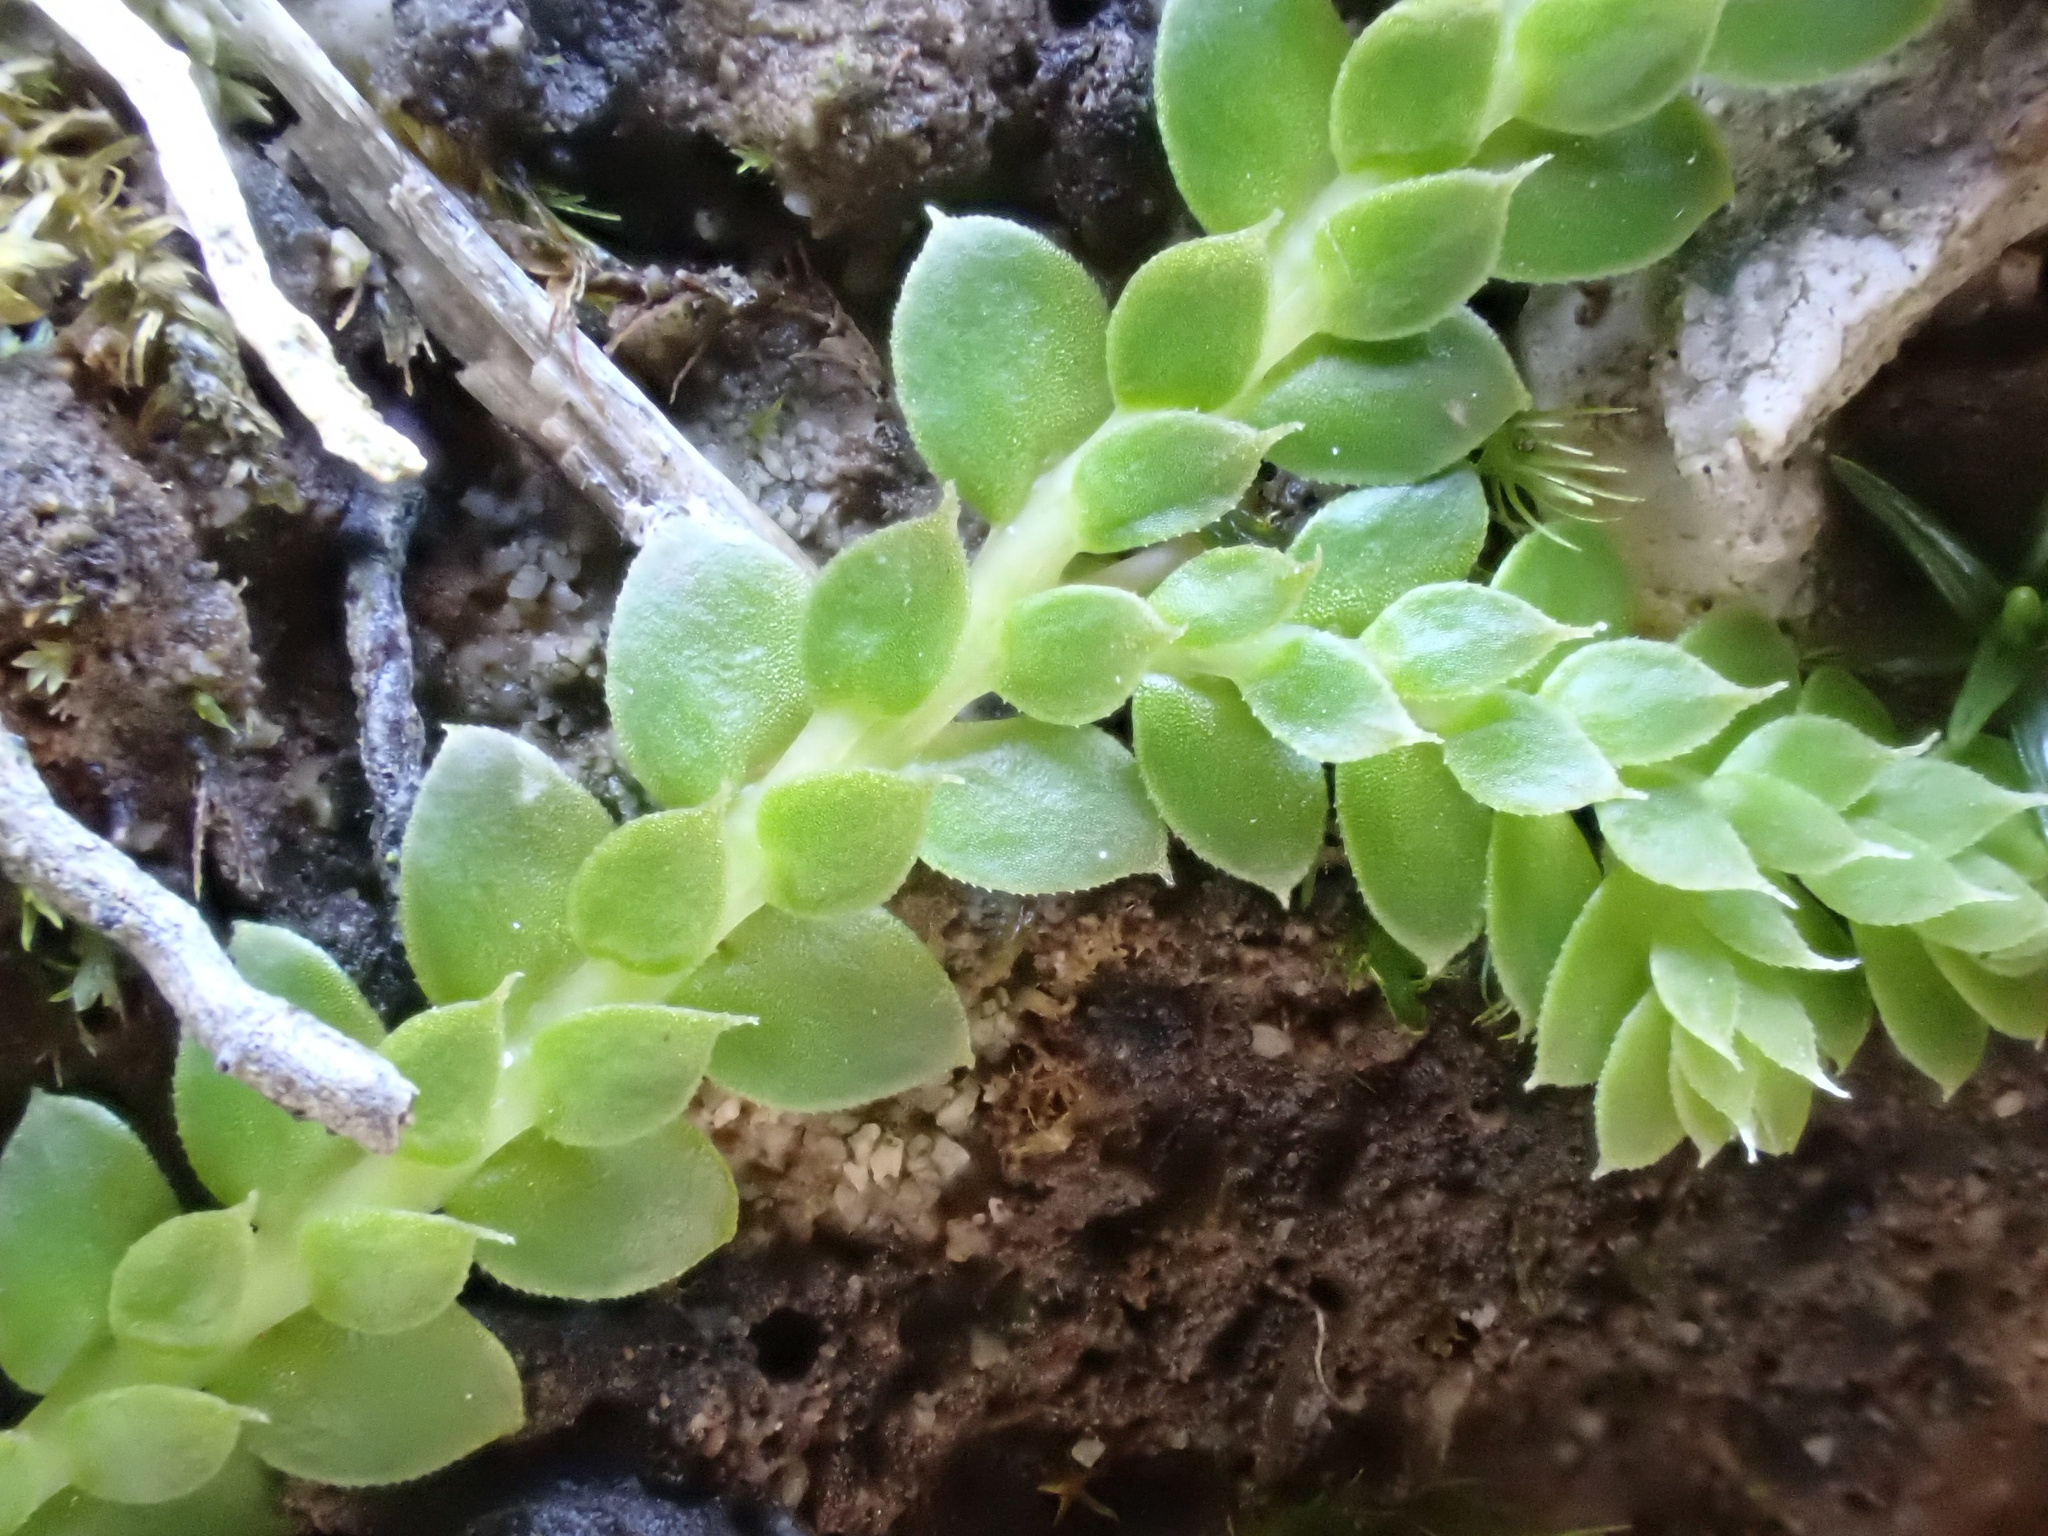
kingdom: Plantae
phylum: Tracheophyta
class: Lycopodiopsida
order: Selaginellales
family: Selaginellaceae
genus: Selaginella
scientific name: Selaginella denticulata
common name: Toothed-leaved clubmoss
